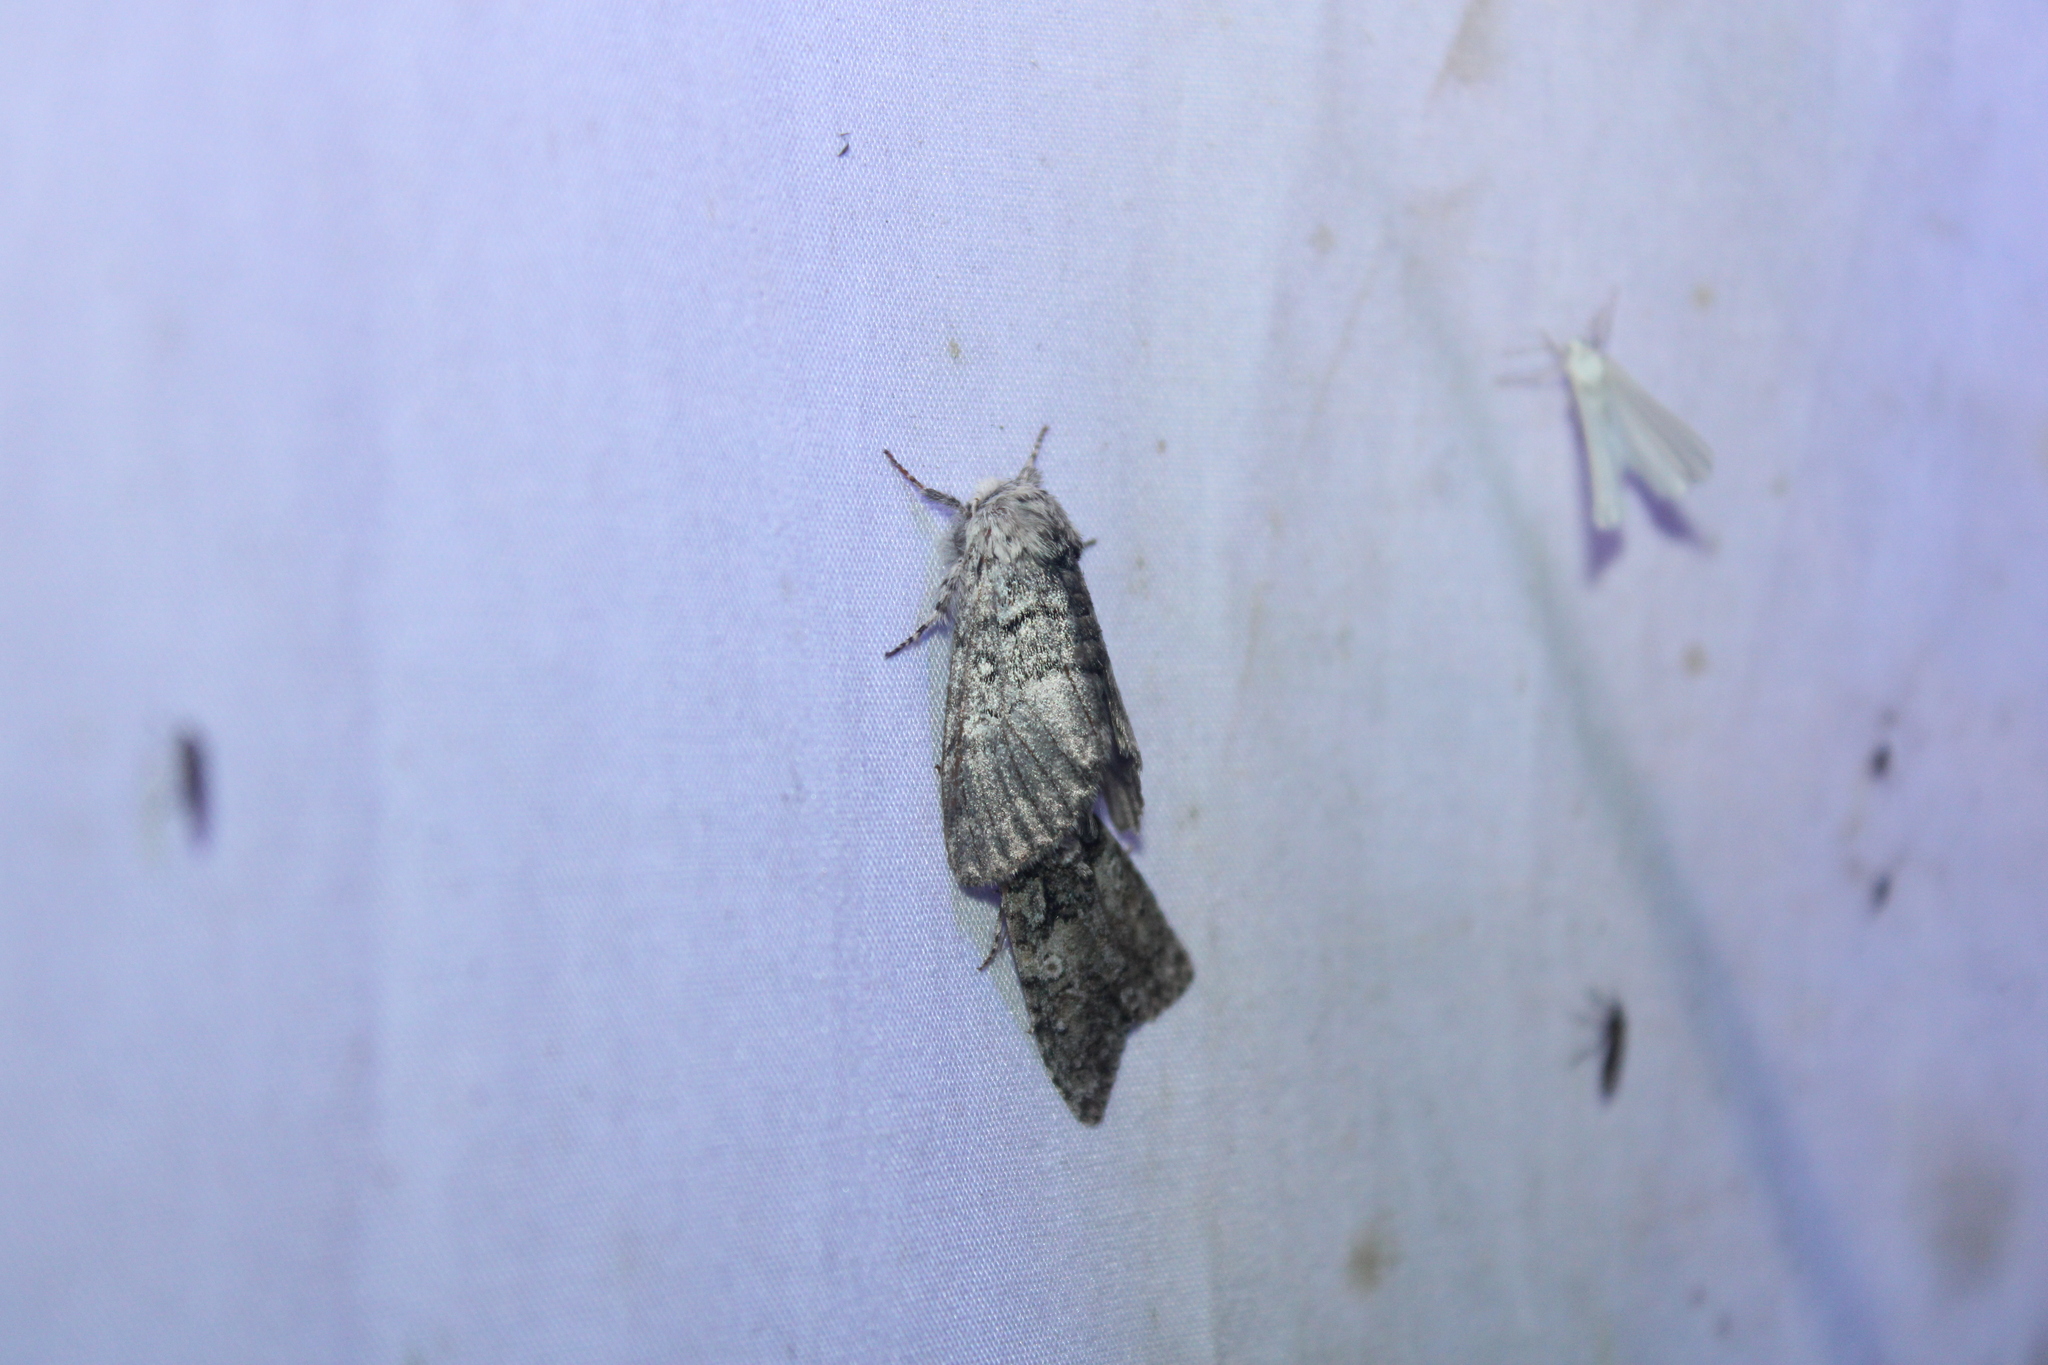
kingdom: Animalia
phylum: Arthropoda
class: Insecta
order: Lepidoptera
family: Noctuidae
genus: Colocasia
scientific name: Colocasia propinquilinea
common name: Close-banded demas
